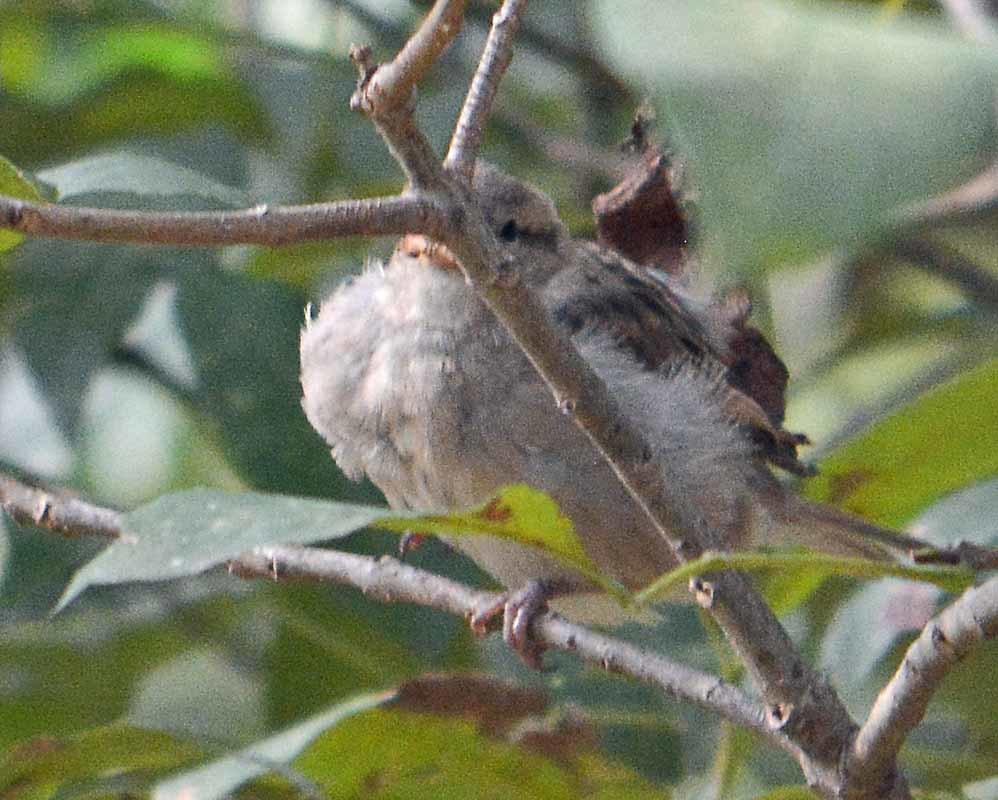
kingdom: Animalia
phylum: Chordata
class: Aves
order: Passeriformes
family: Passeridae
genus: Passer
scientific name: Passer domesticus
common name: House sparrow
